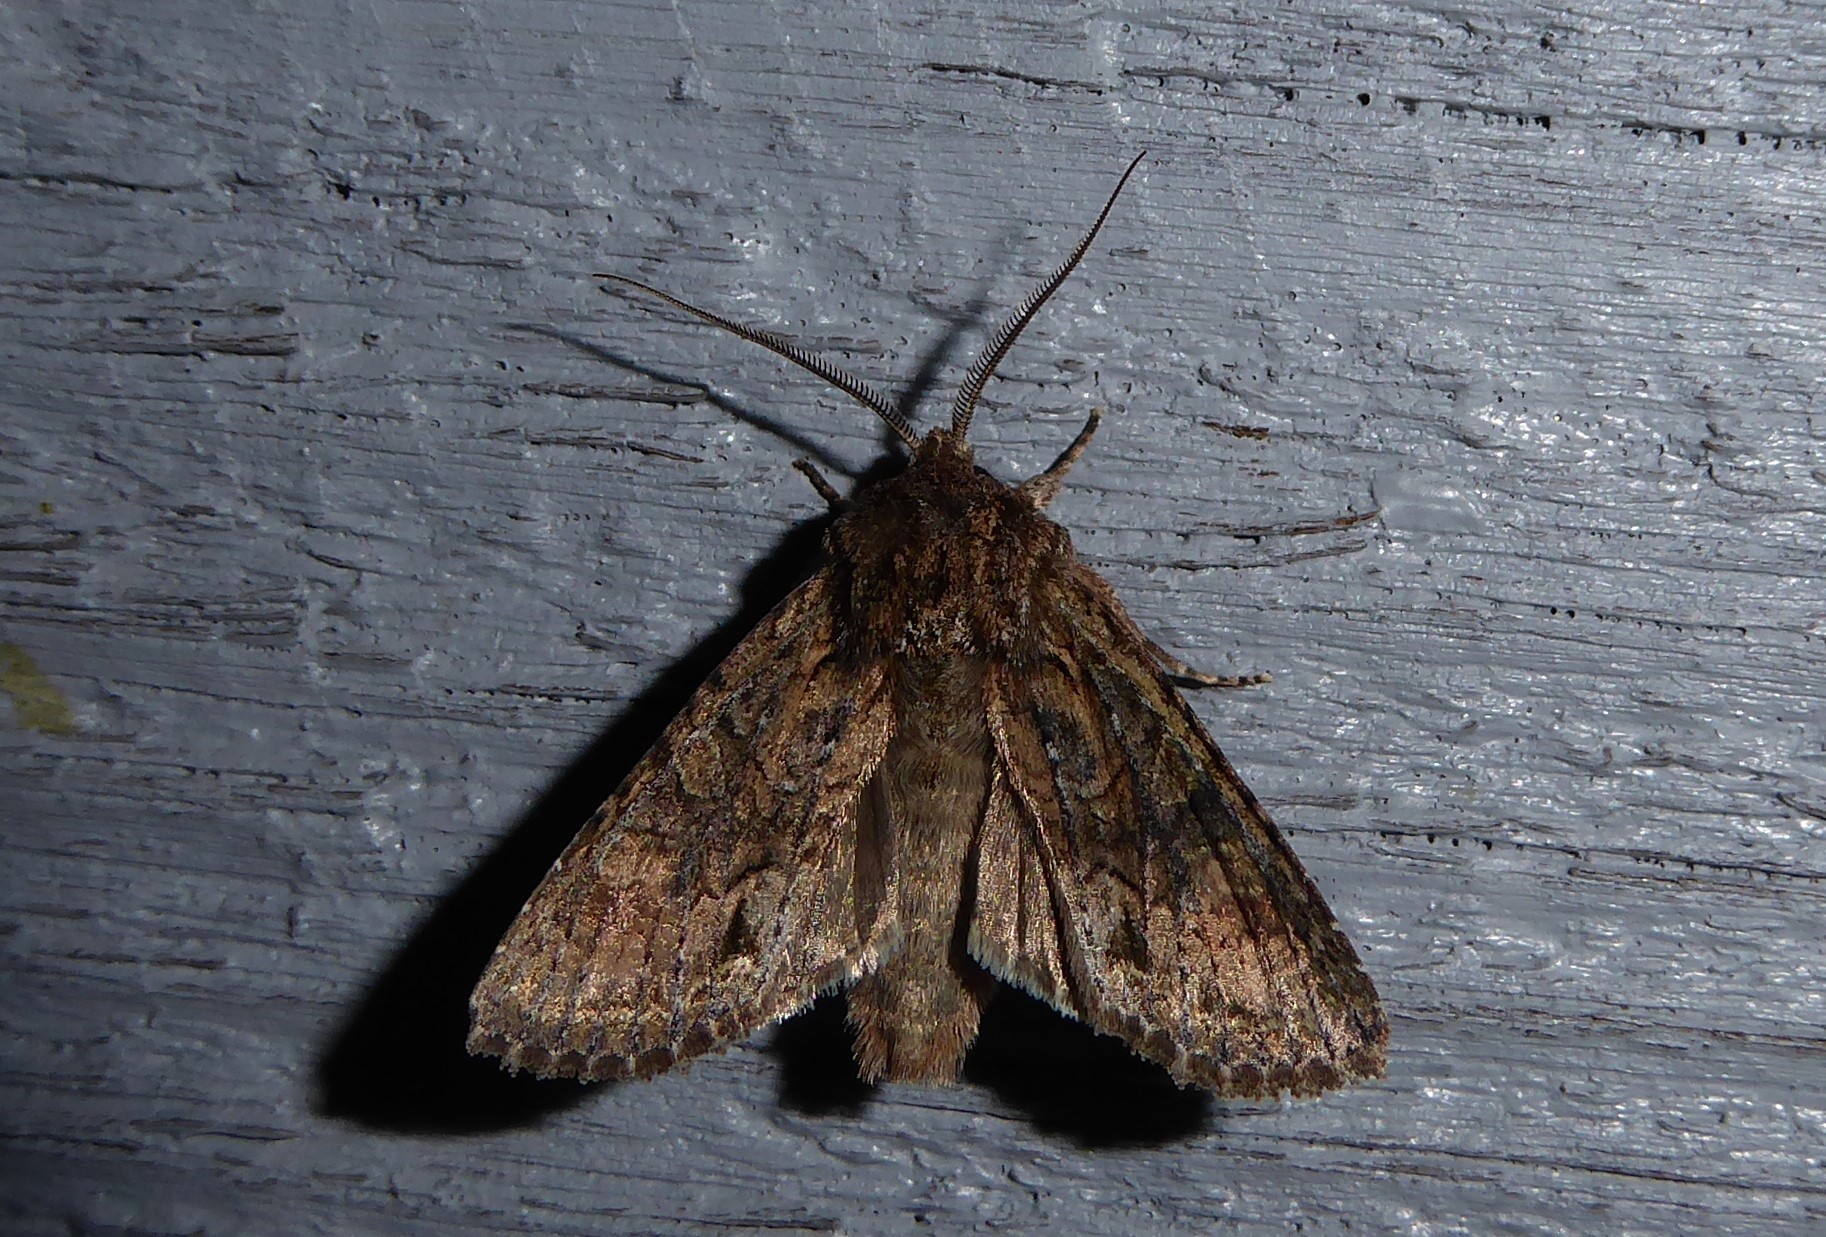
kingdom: Animalia
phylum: Arthropoda
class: Insecta
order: Lepidoptera
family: Noctuidae
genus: Ichneutica
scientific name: Ichneutica mutans
